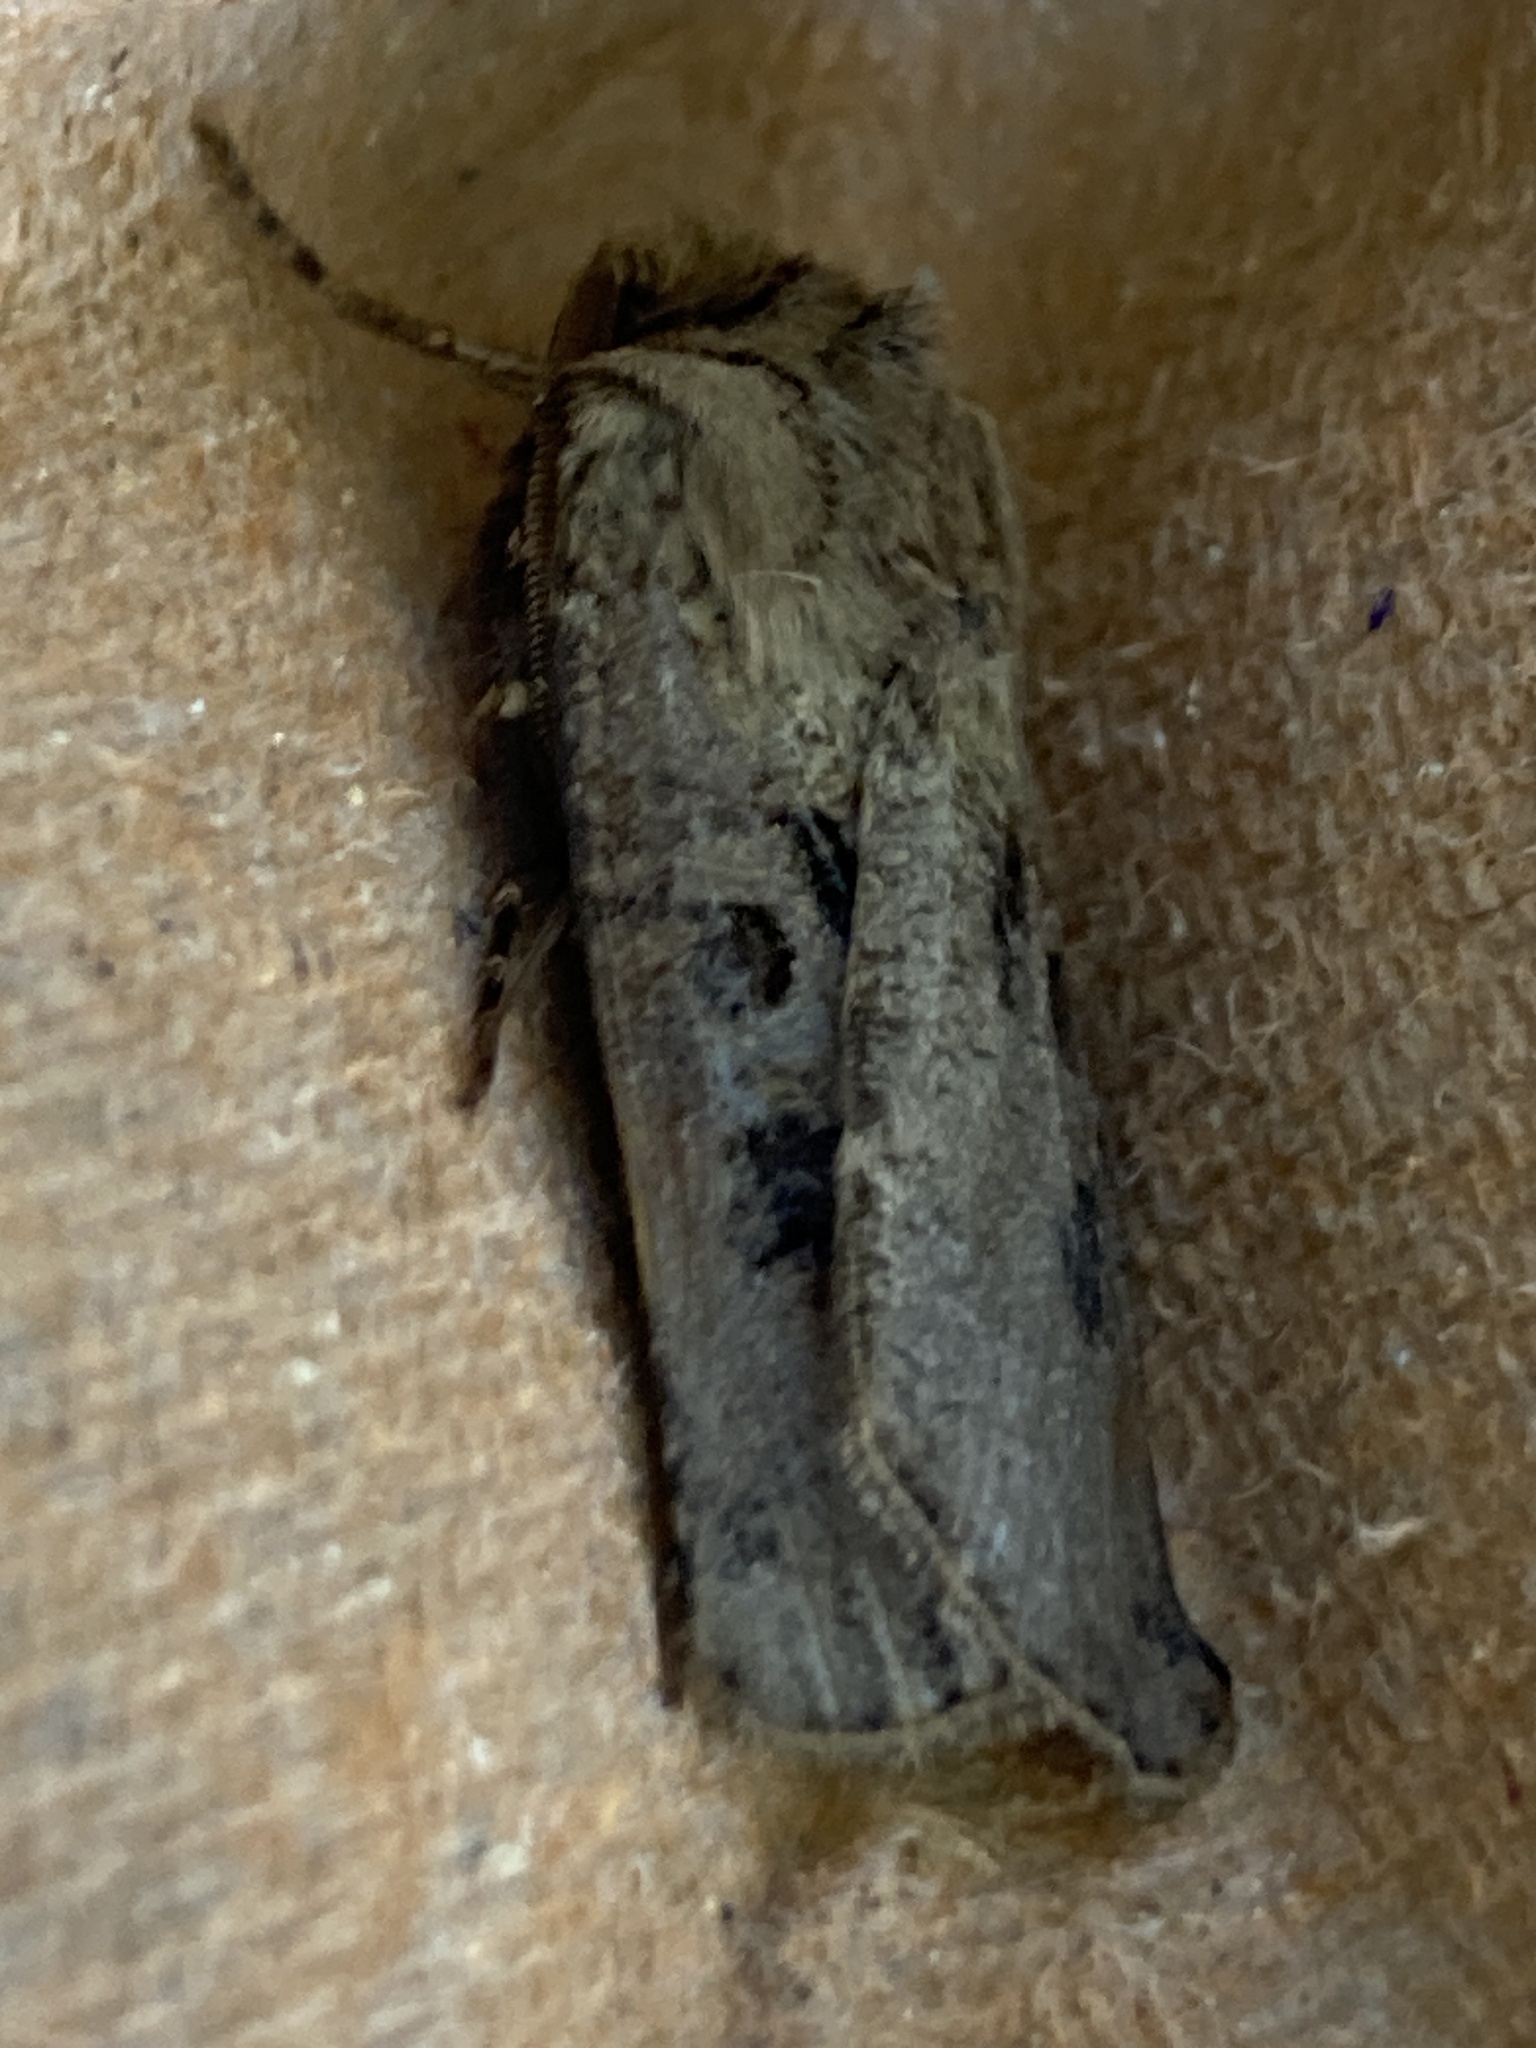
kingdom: Animalia
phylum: Arthropoda
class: Insecta
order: Lepidoptera
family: Noctuidae
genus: Agrotis
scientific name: Agrotis clavis
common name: Heart and club
